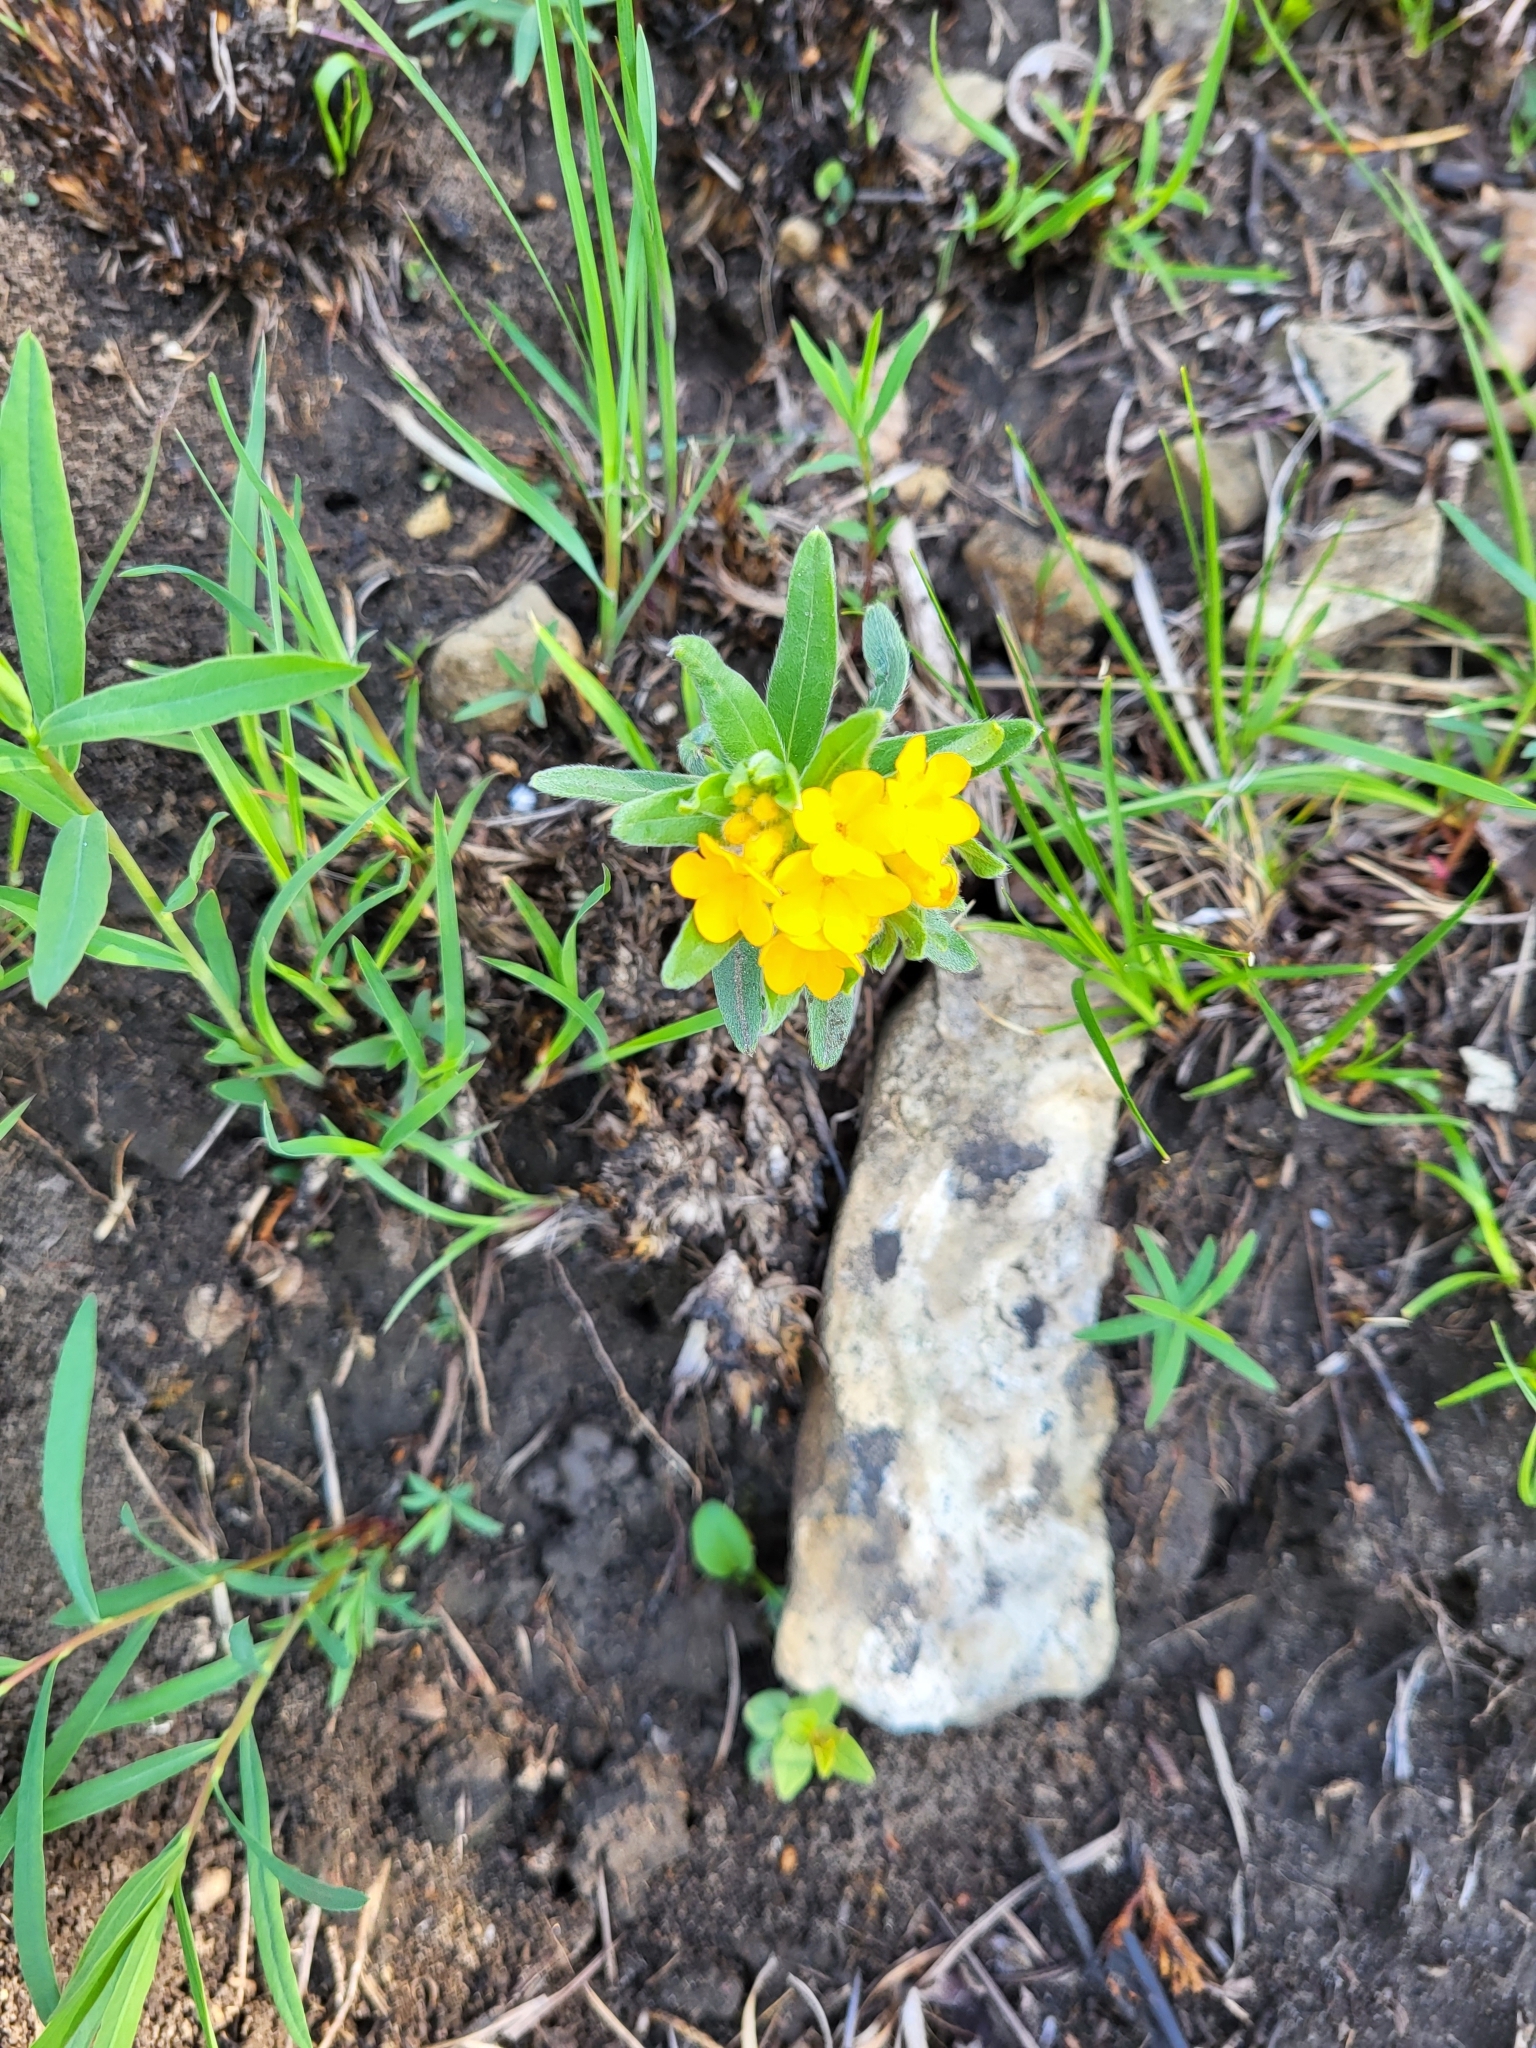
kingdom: Plantae
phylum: Tracheophyta
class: Magnoliopsida
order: Boraginales
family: Boraginaceae
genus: Lithospermum
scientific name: Lithospermum canescens
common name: Hoary puccoon
